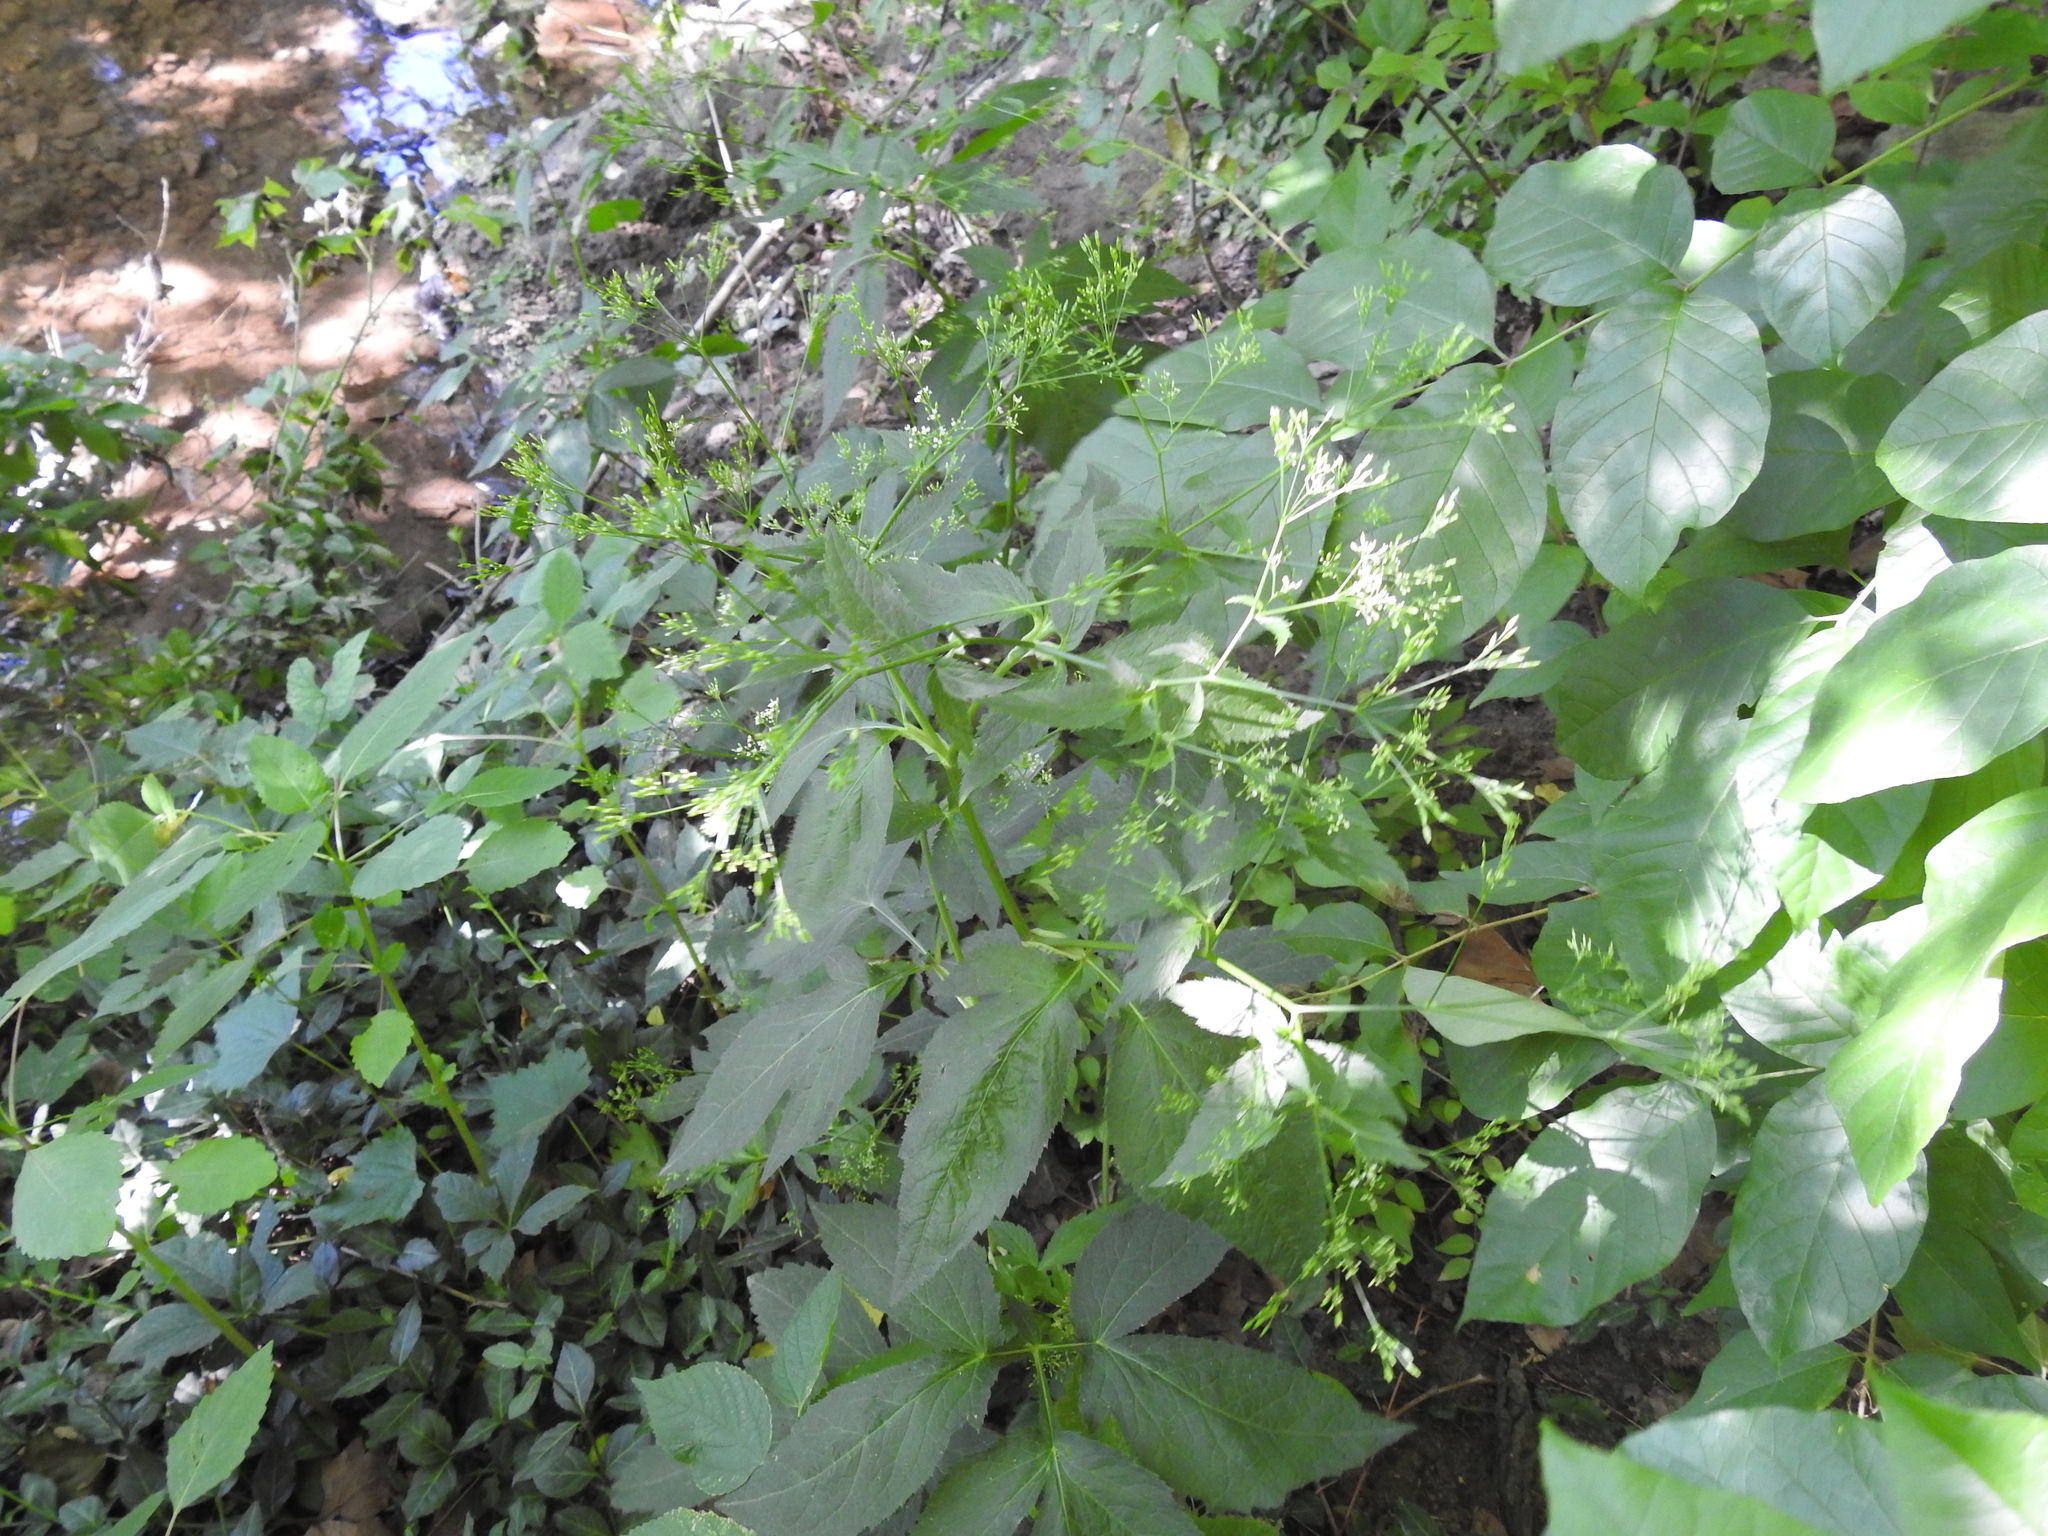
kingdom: Plantae
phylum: Tracheophyta
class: Magnoliopsida
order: Apiales
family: Apiaceae
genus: Cryptotaenia
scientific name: Cryptotaenia canadensis
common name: Honewort
